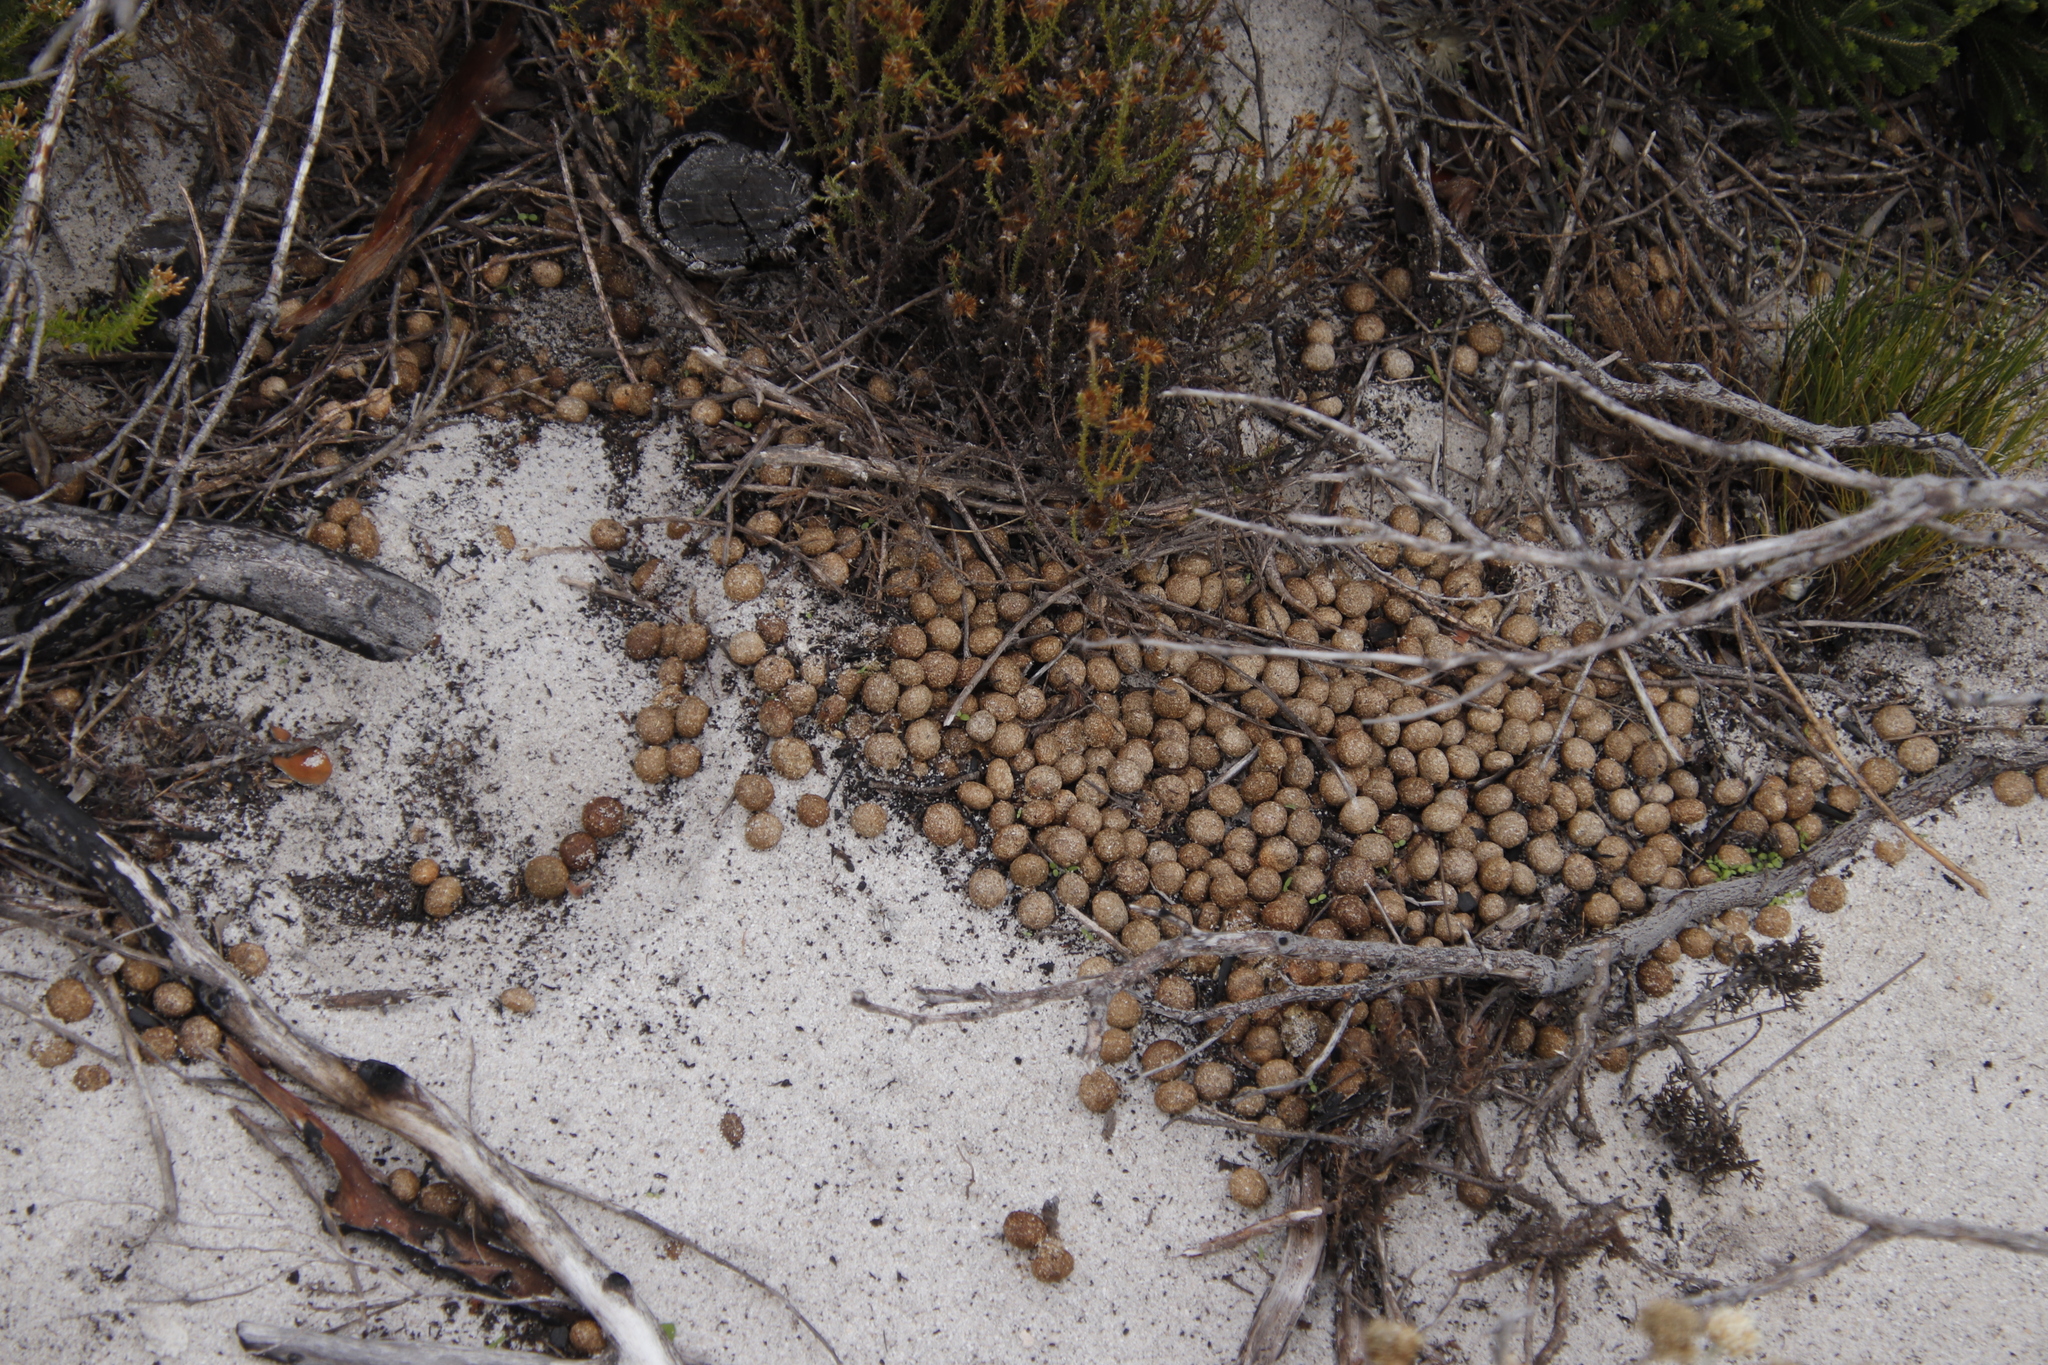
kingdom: Animalia
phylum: Chordata
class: Mammalia
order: Lagomorpha
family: Leporidae
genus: Pronolagus
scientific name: Pronolagus saundersiae
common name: Hewitt's red rock hare
